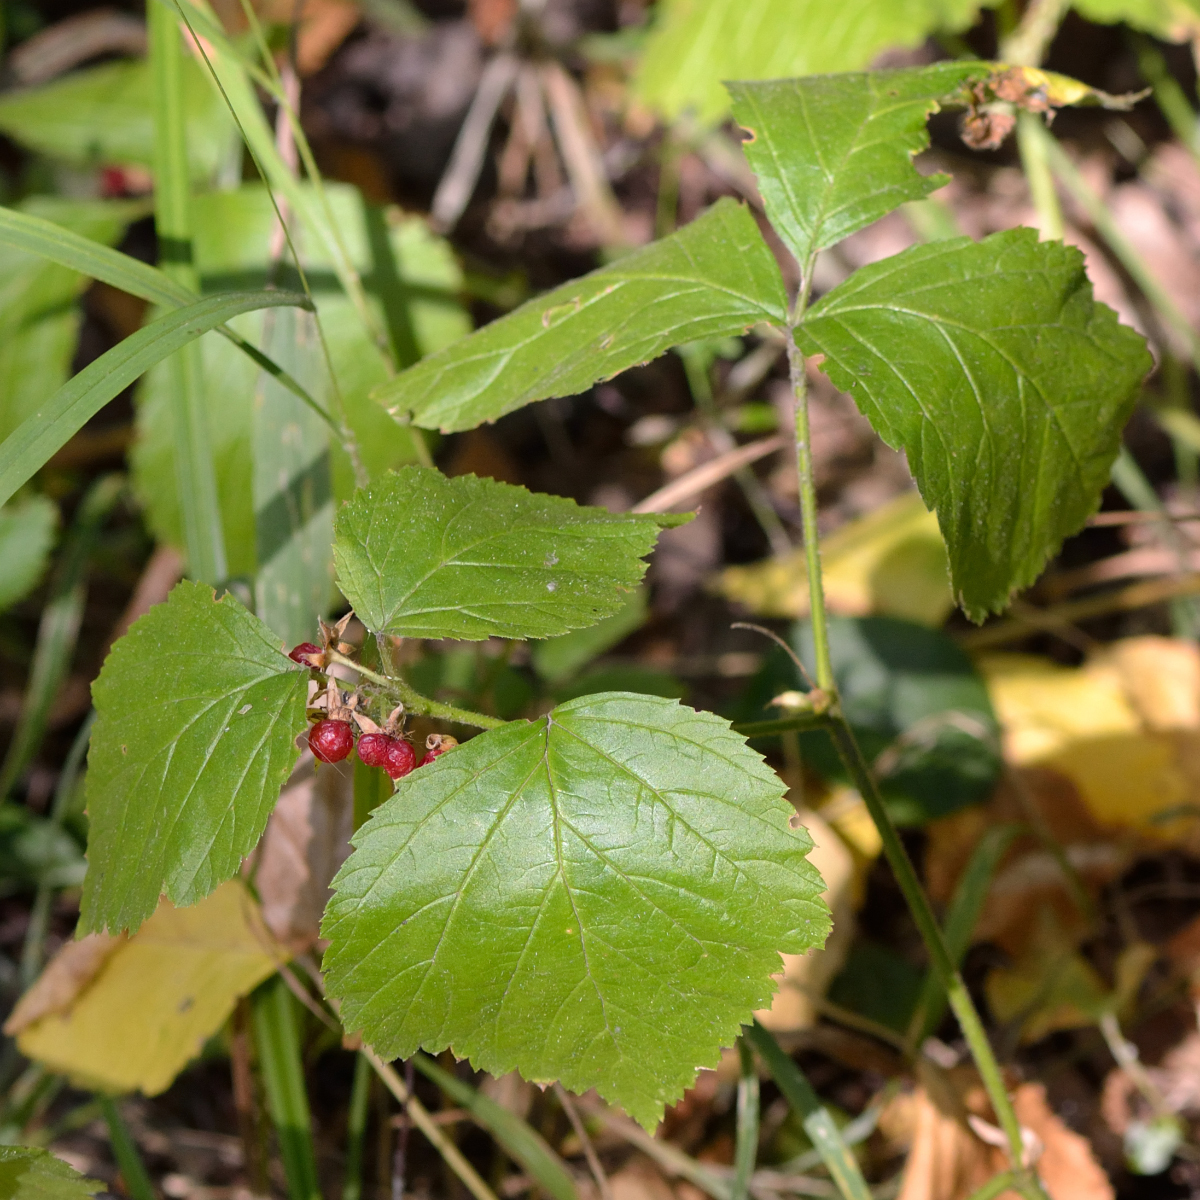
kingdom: Plantae
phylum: Tracheophyta
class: Magnoliopsida
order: Rosales
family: Rosaceae
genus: Rubus
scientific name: Rubus saxatilis
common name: Stone bramble
